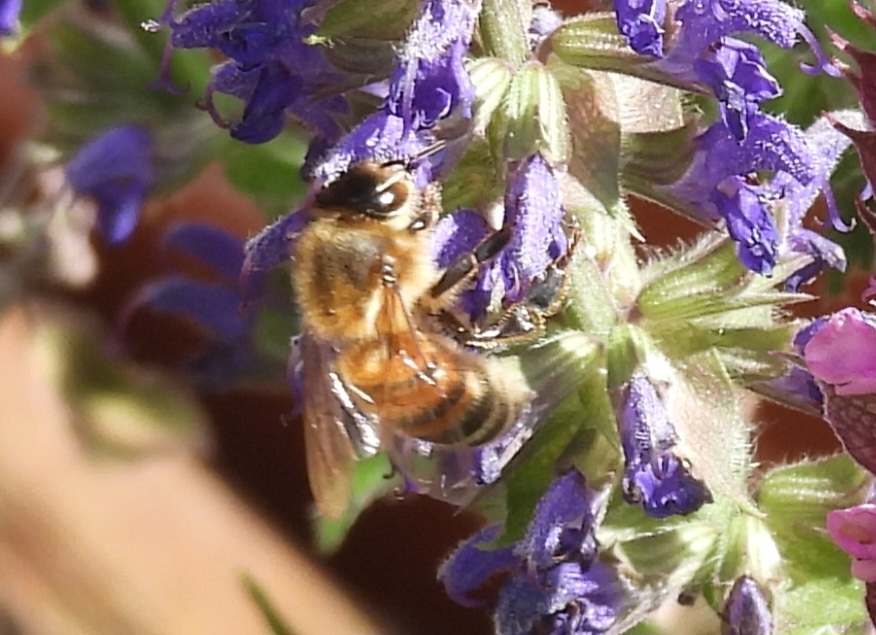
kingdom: Animalia
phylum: Arthropoda
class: Insecta
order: Hymenoptera
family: Apidae
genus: Apis
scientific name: Apis mellifera
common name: Honey bee
